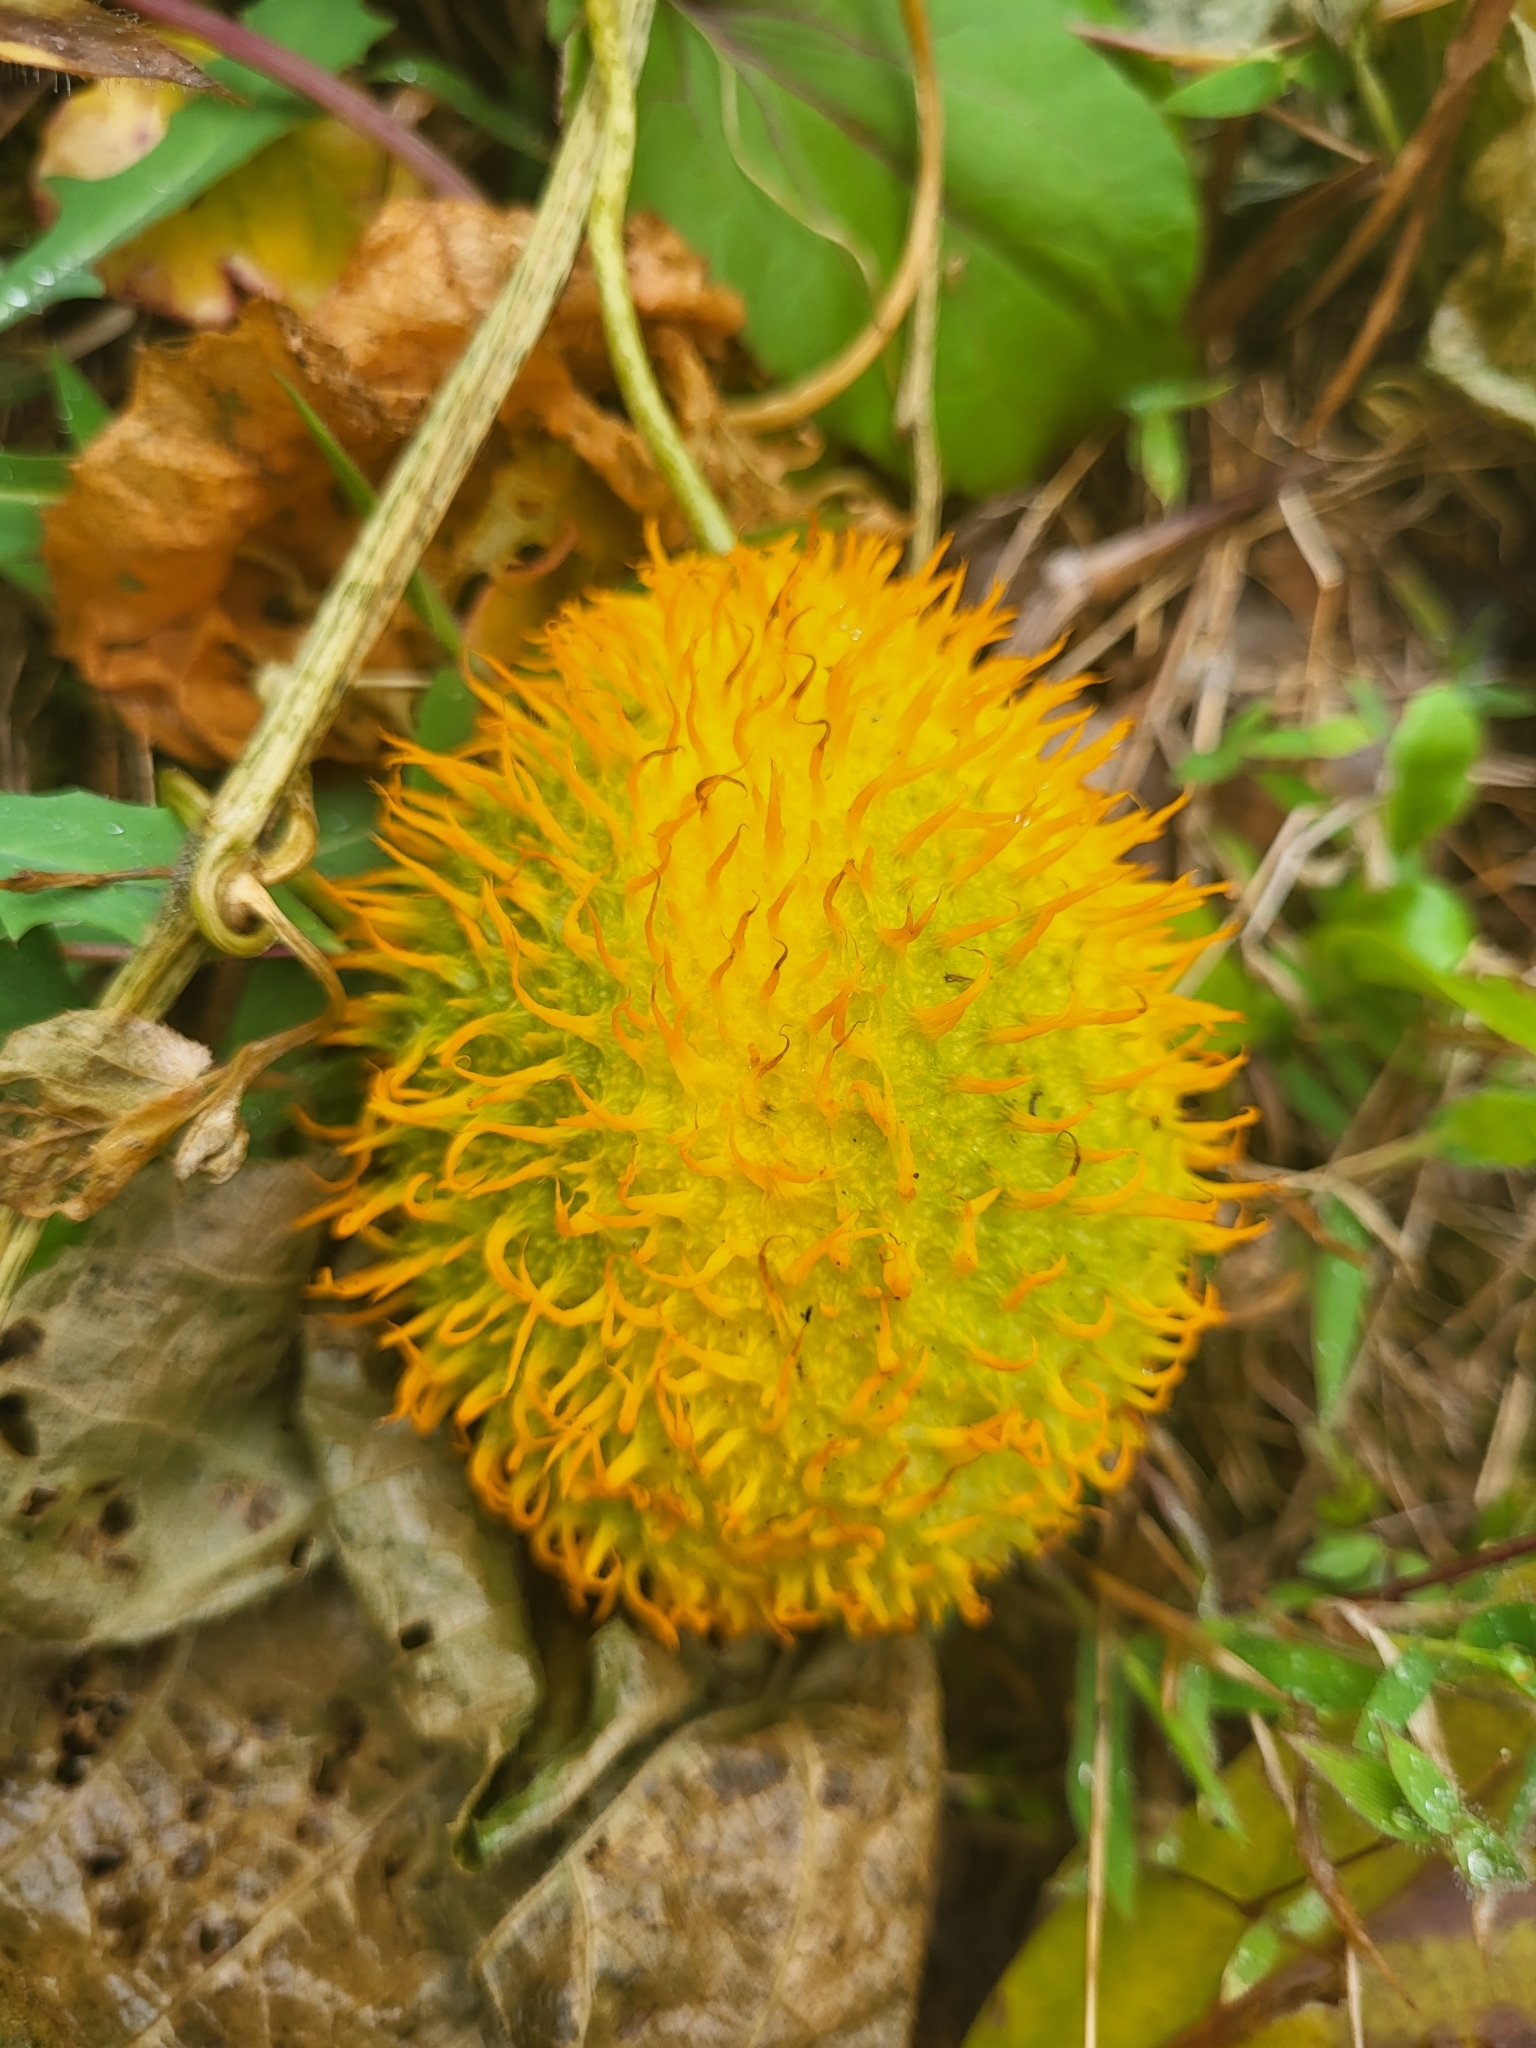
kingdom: Plantae
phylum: Tracheophyta
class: Magnoliopsida
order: Cucurbitales
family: Cucurbitaceae
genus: Momordica
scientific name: Momordica foetida
